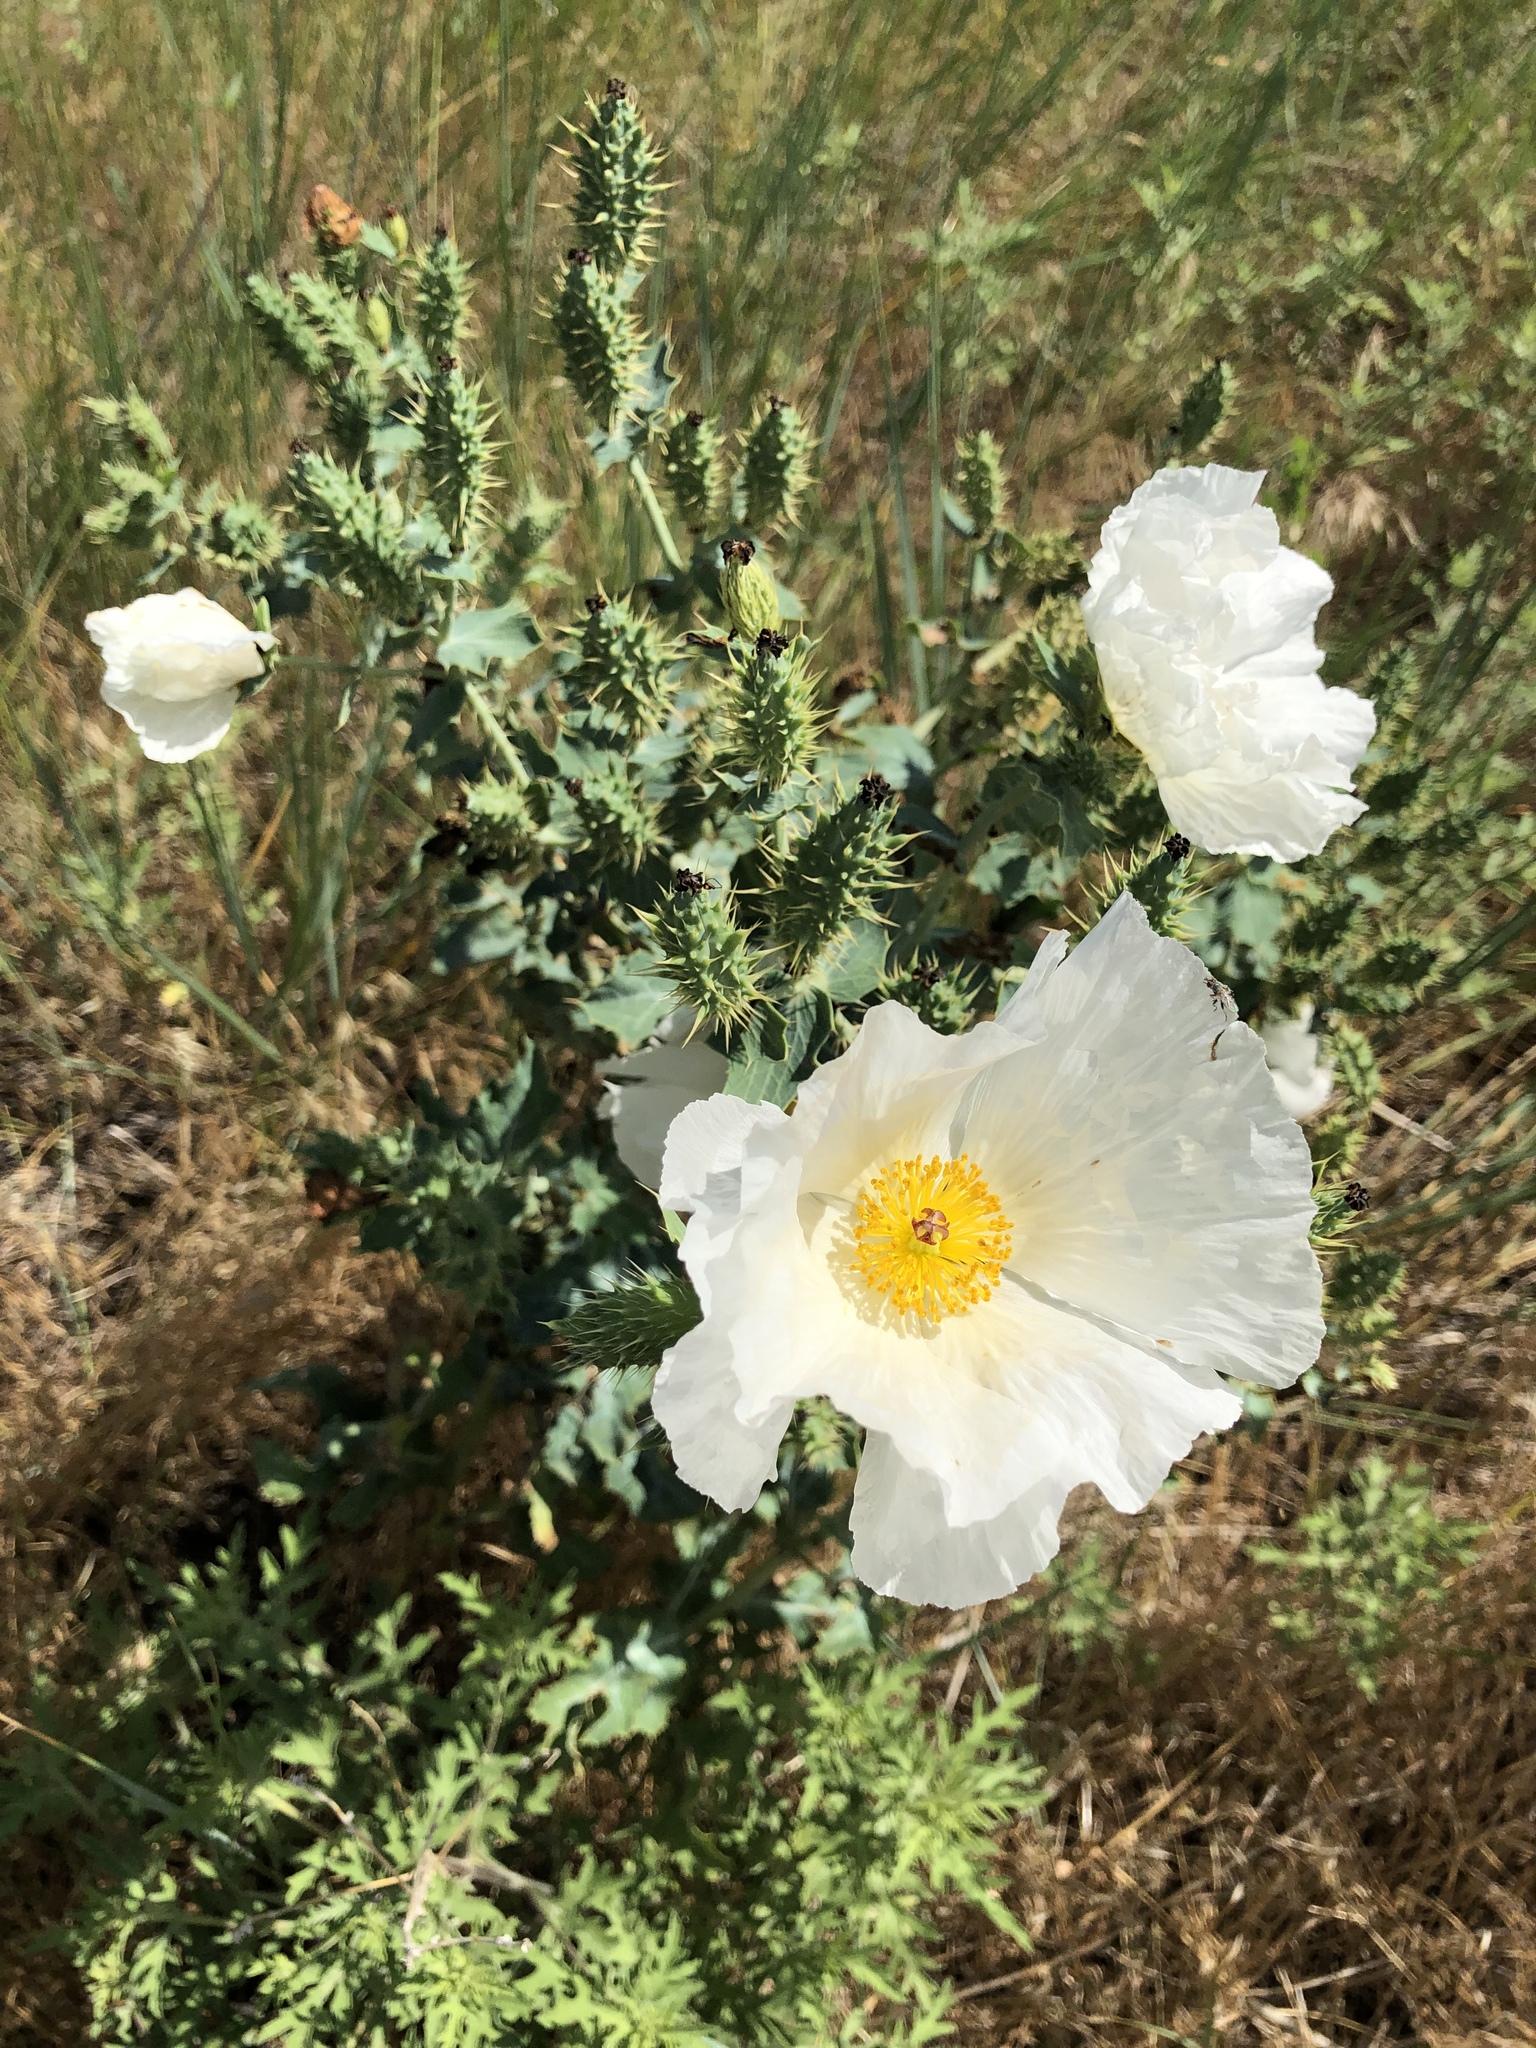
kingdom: Plantae
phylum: Tracheophyta
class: Magnoliopsida
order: Ranunculales
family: Papaveraceae
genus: Argemone
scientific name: Argemone polyanthemos
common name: Plains prickly-poppy
